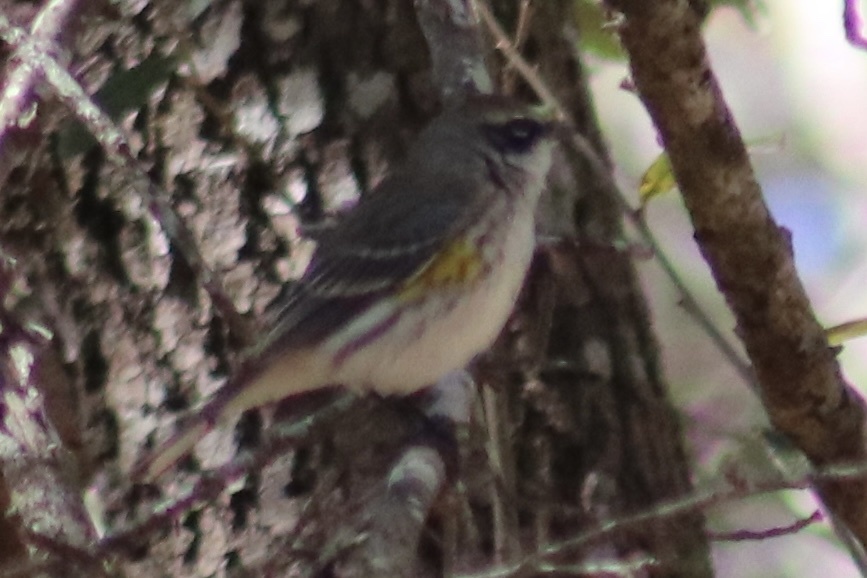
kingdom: Animalia
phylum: Chordata
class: Aves
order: Passeriformes
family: Parulidae
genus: Setophaga
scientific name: Setophaga coronata
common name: Myrtle warbler
